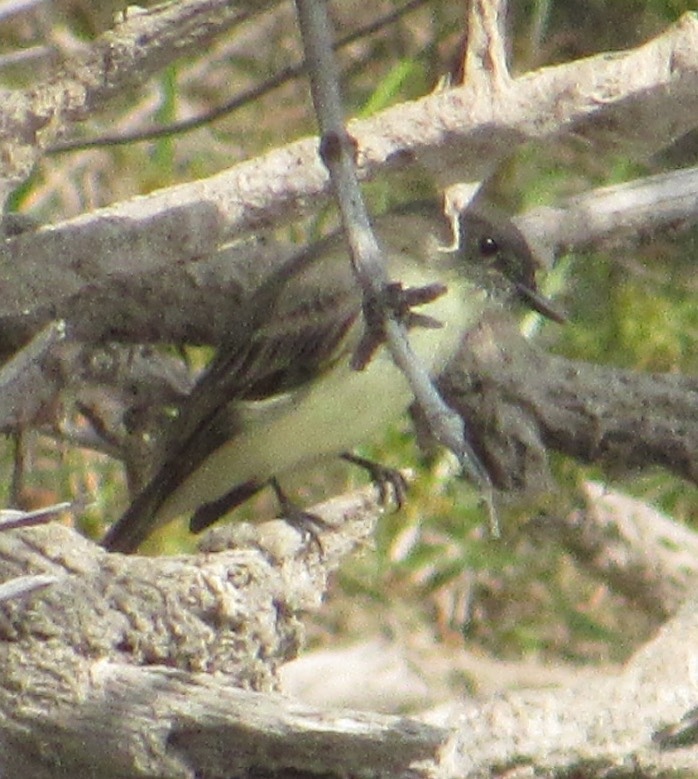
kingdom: Animalia
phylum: Chordata
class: Aves
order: Passeriformes
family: Tyrannidae
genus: Sayornis
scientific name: Sayornis phoebe
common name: Eastern phoebe
